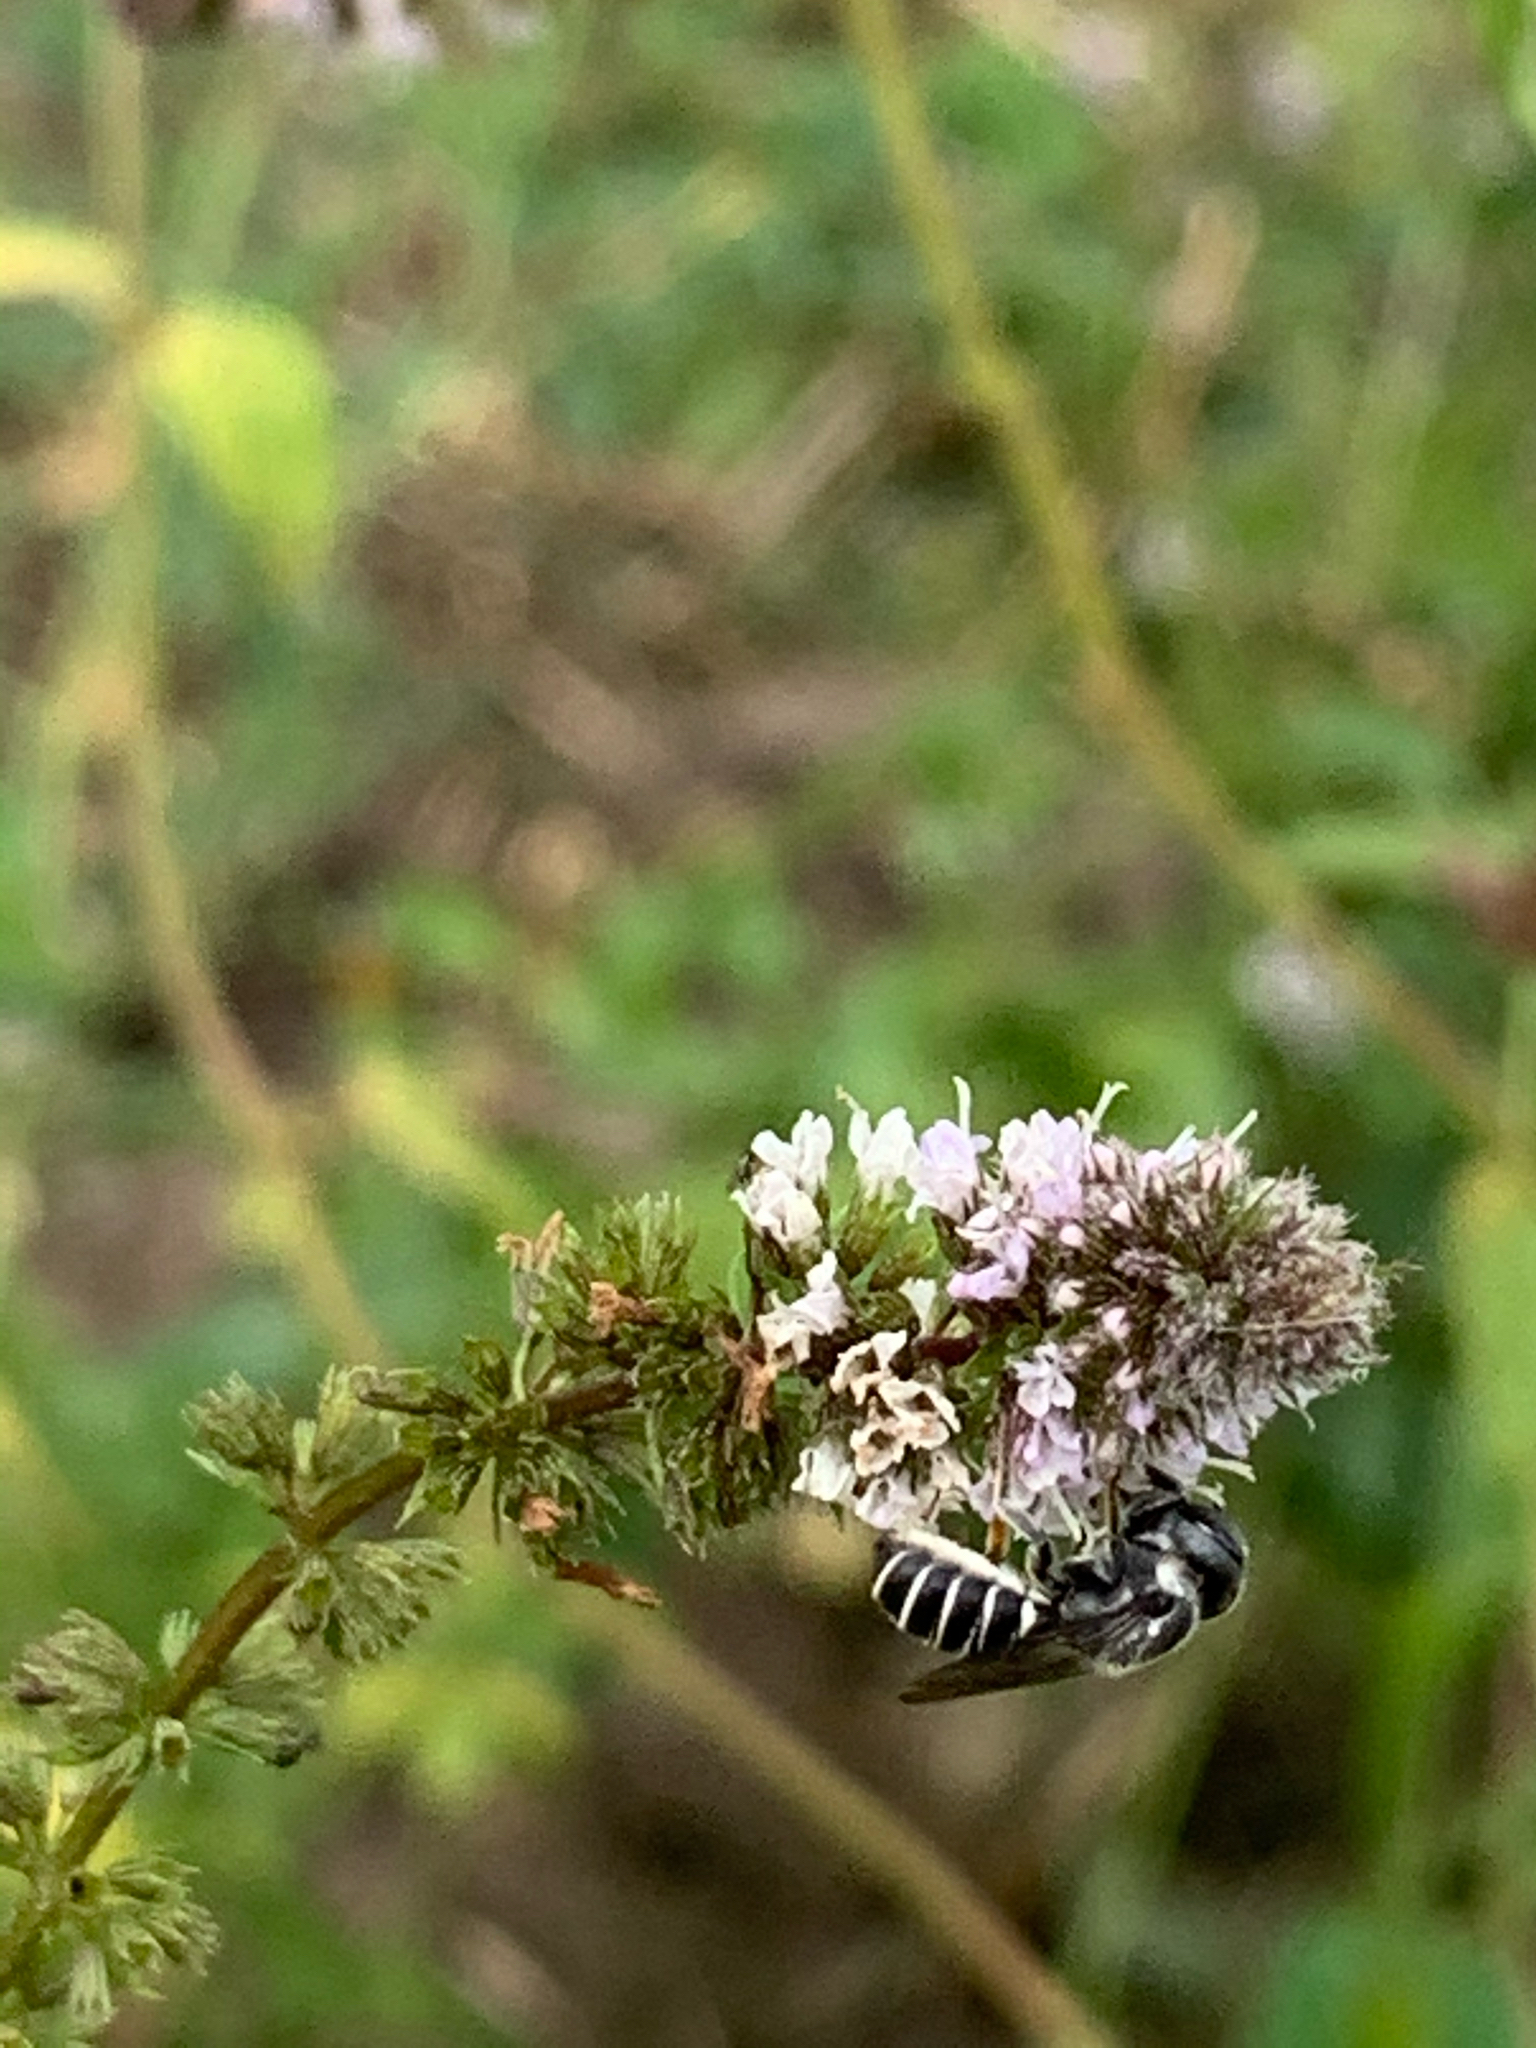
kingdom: Animalia
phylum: Arthropoda
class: Insecta
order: Hymenoptera
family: Megachilidae
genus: Megachile
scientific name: Megachile exilis
